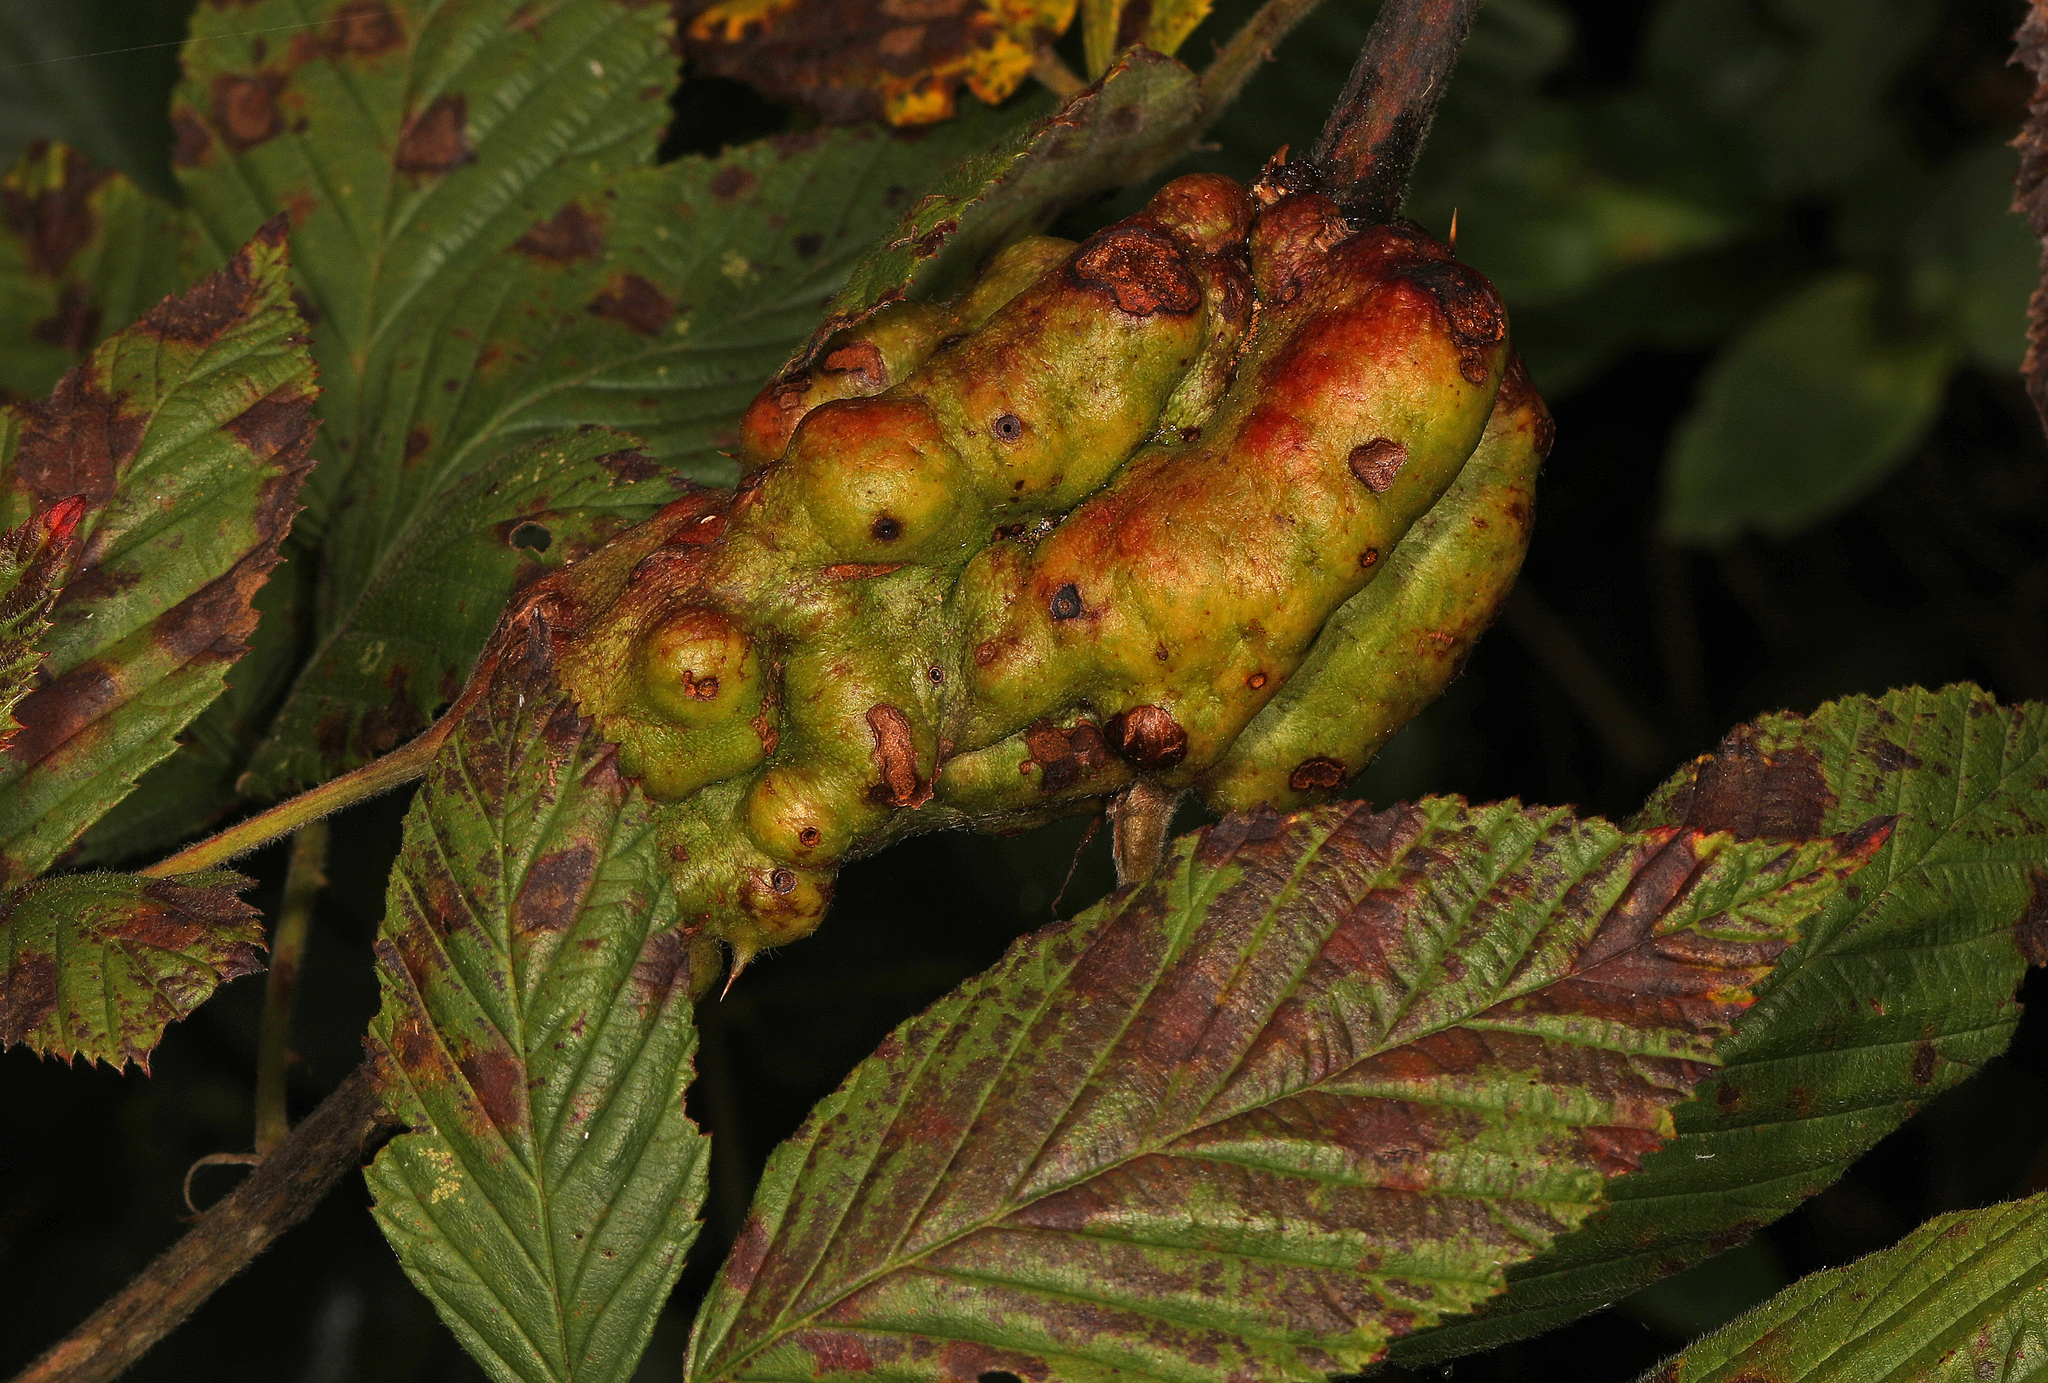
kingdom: Animalia
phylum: Arthropoda
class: Insecta
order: Hymenoptera
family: Cynipidae
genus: Diastrophus
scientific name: Diastrophus
